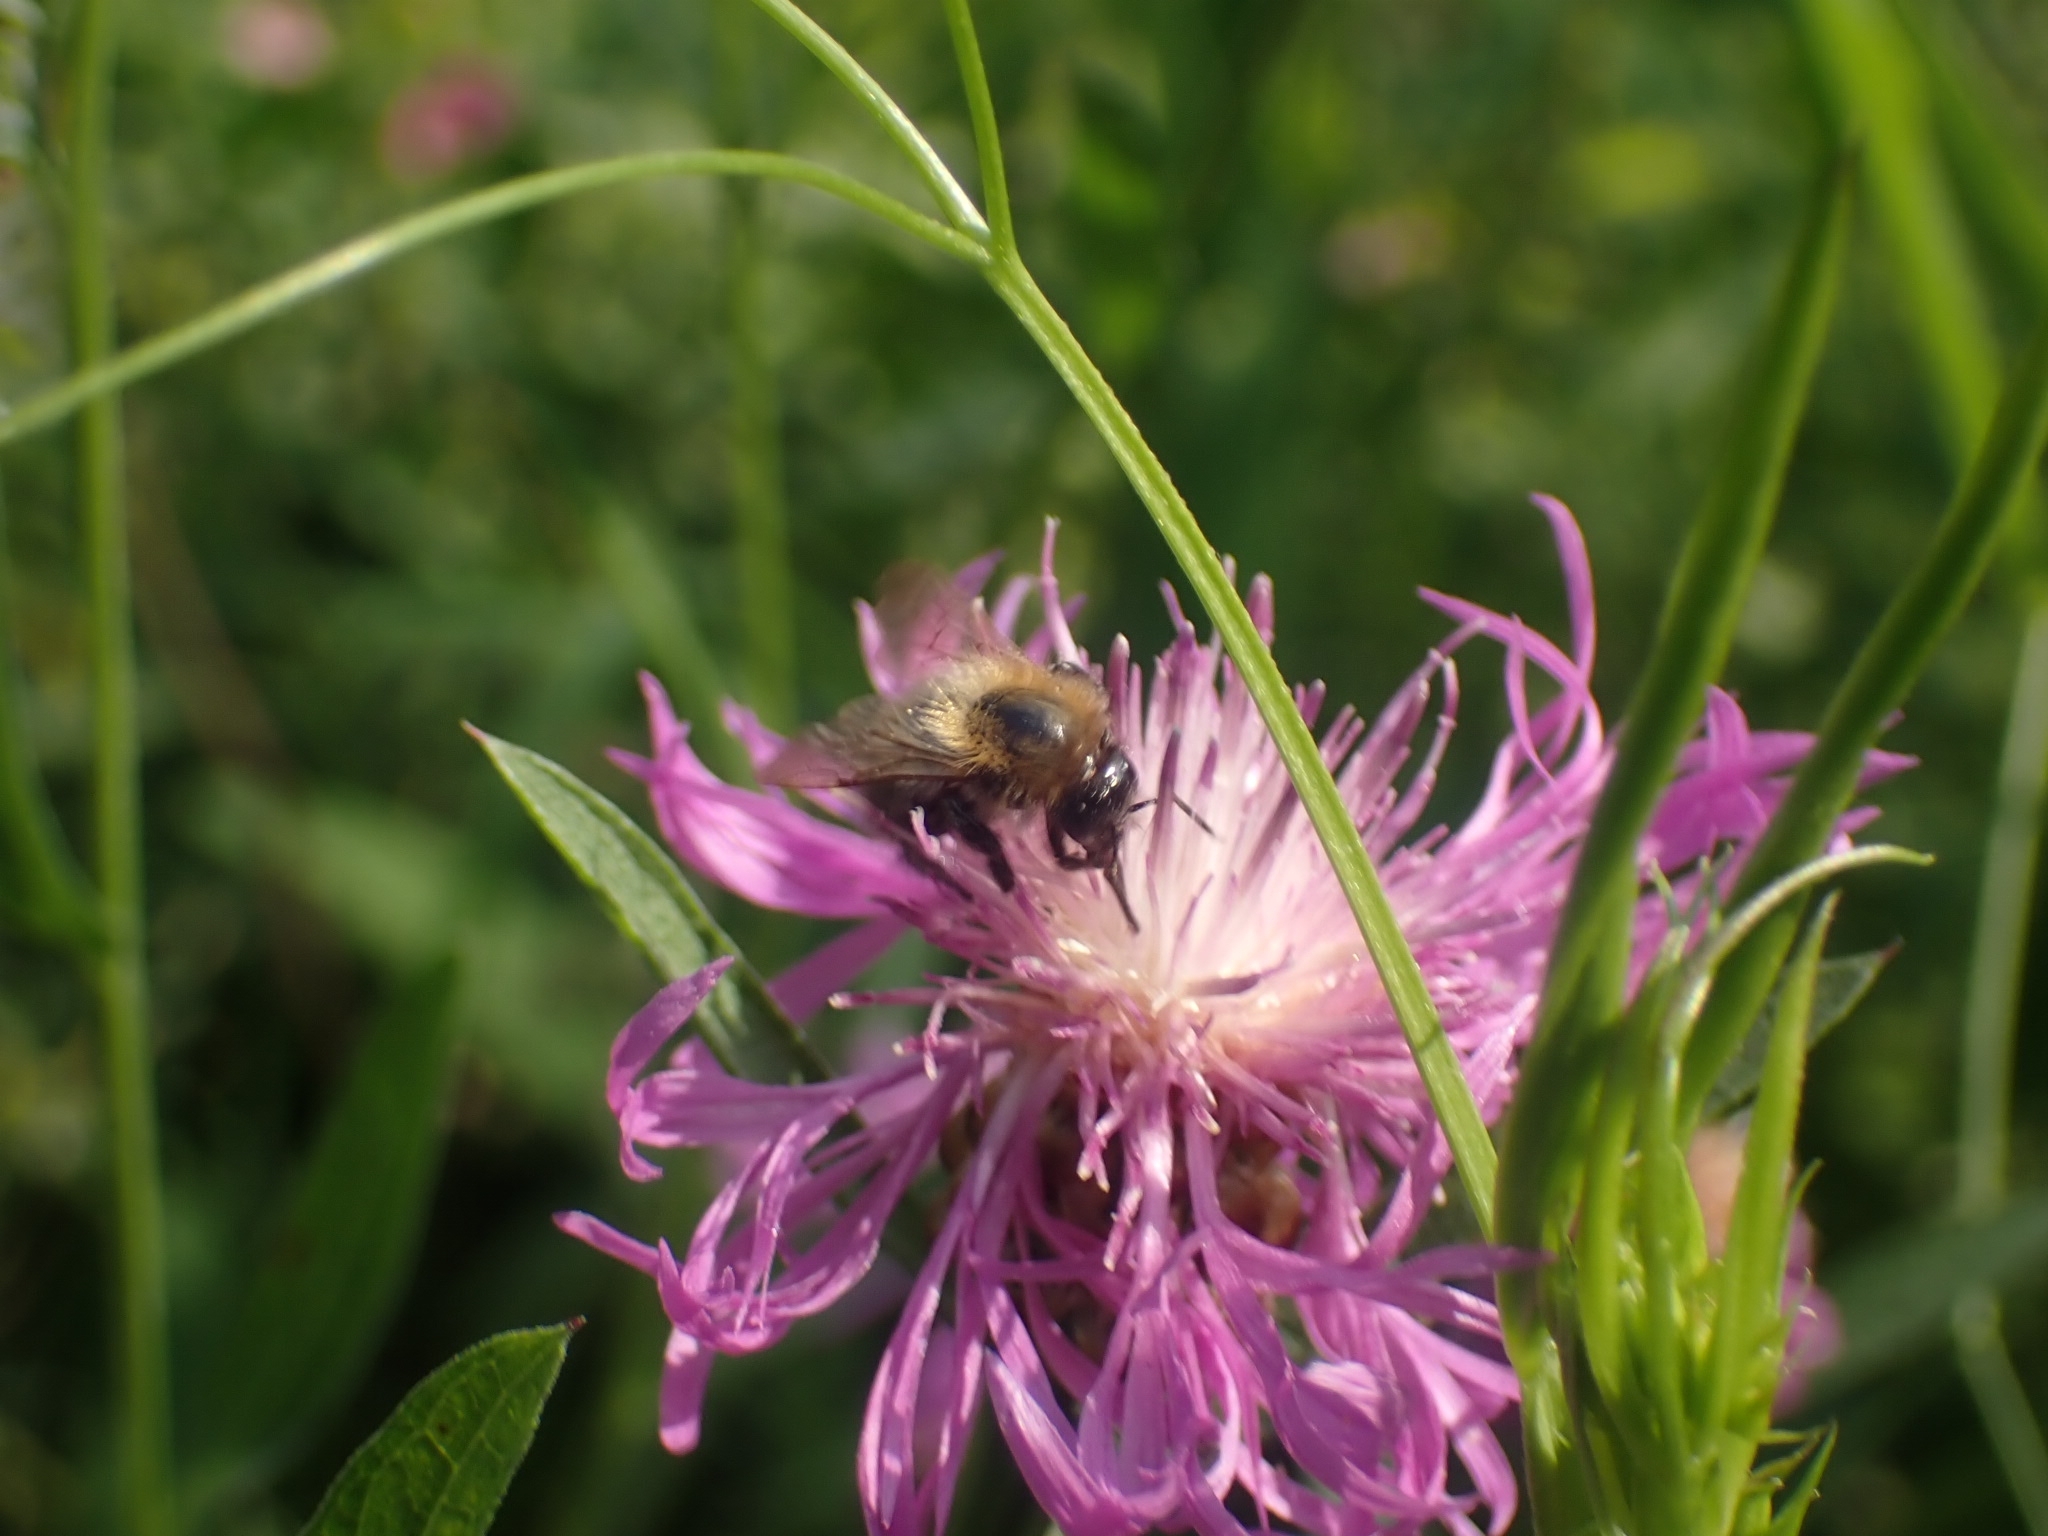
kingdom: Animalia
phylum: Arthropoda
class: Insecta
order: Hymenoptera
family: Apidae
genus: Bombus
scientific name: Bombus pascuorum
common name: Common carder bee
